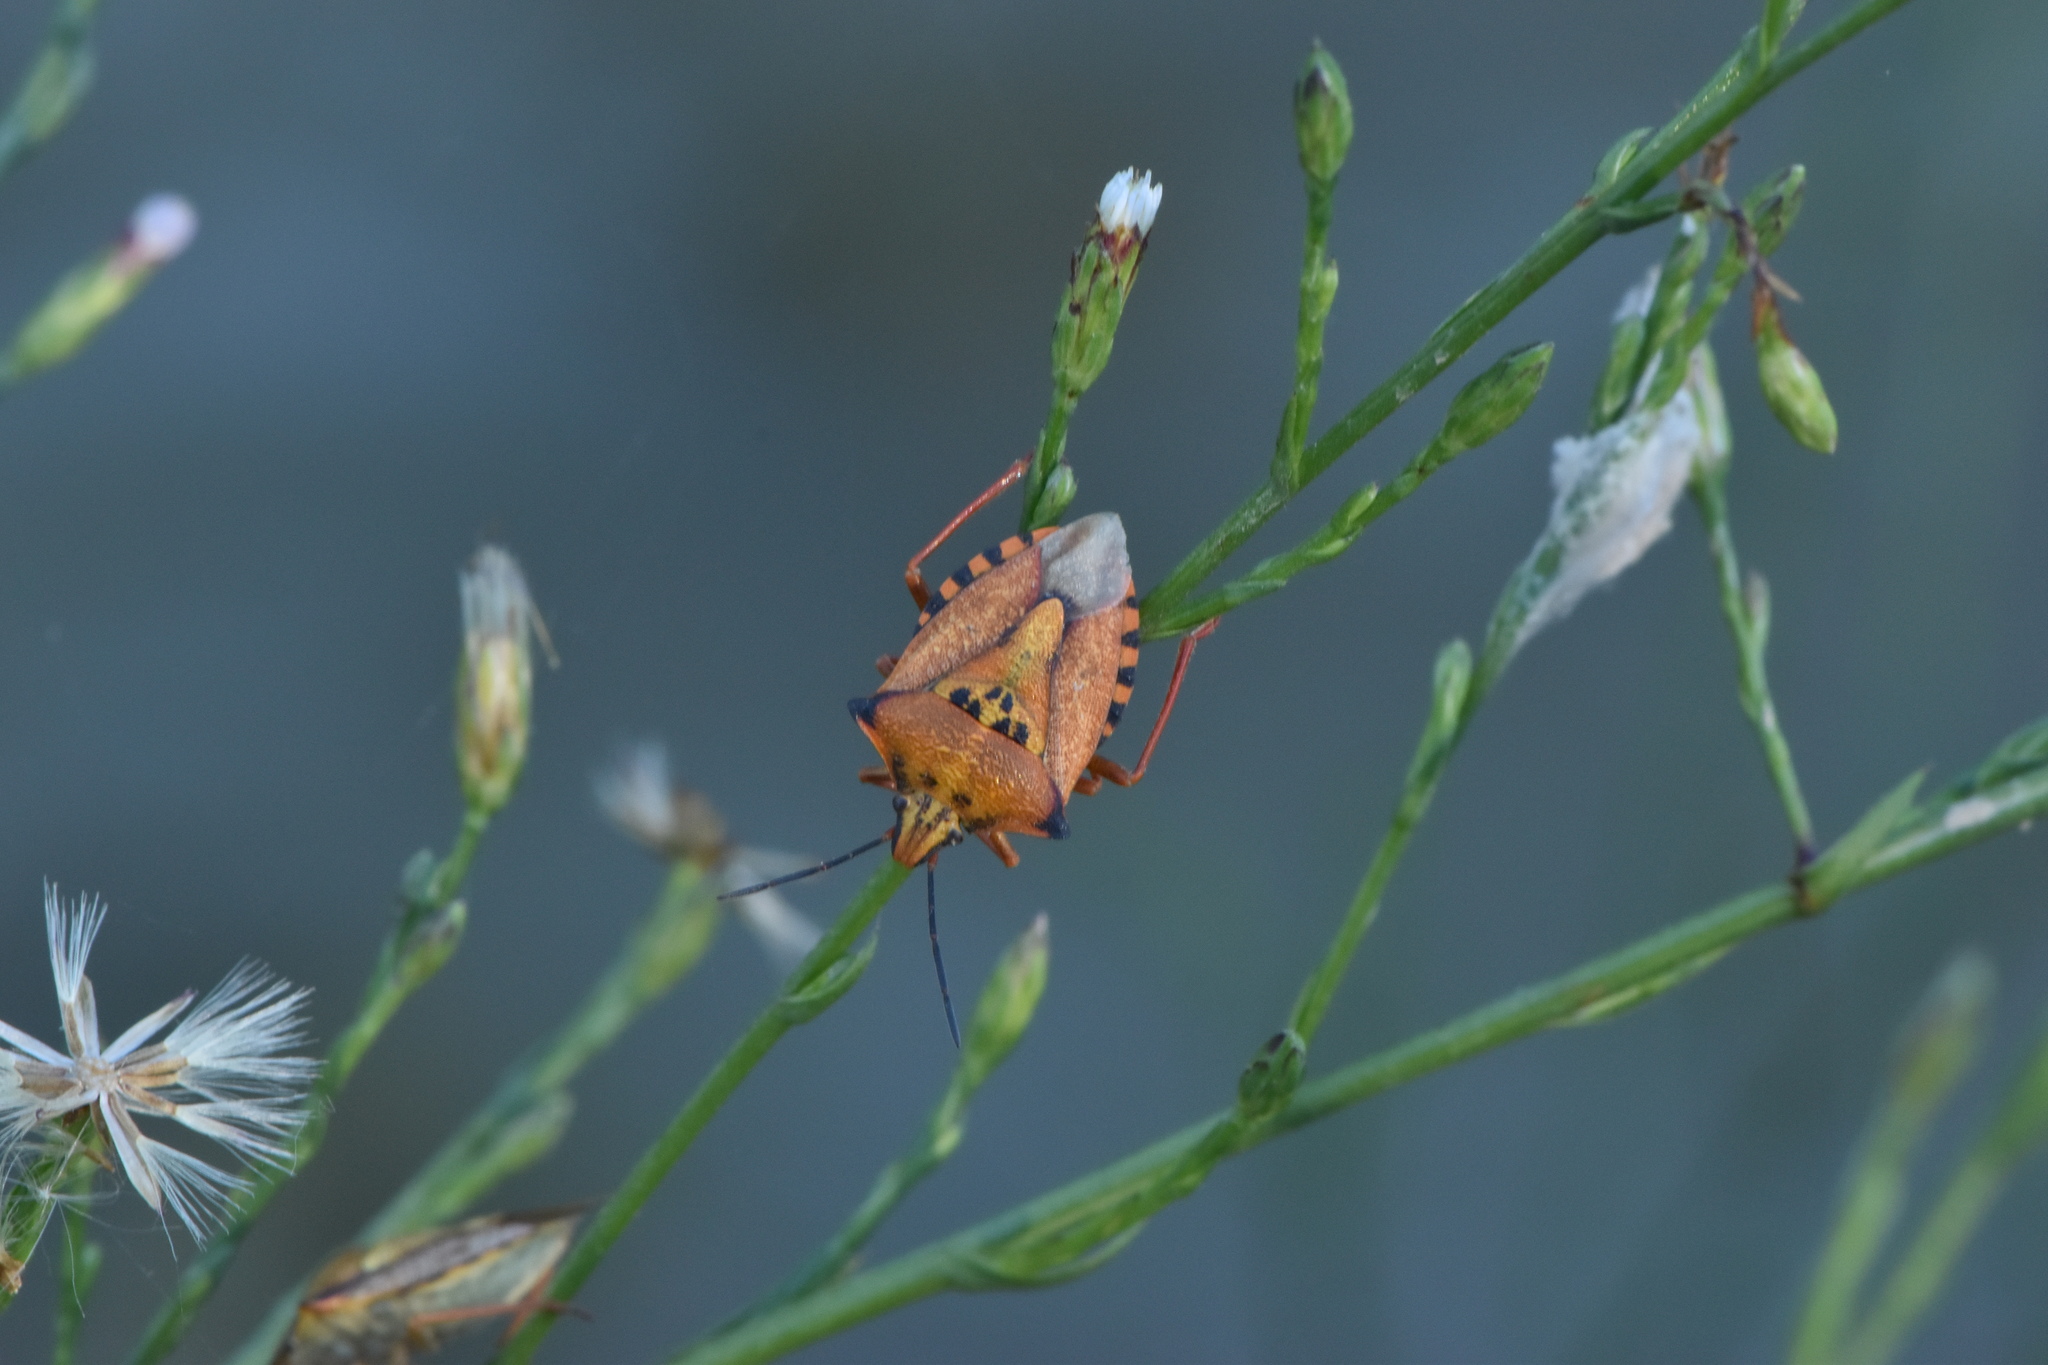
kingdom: Animalia
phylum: Arthropoda
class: Insecta
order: Hemiptera
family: Pentatomidae
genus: Carpocoris
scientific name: Carpocoris mediterraneus
